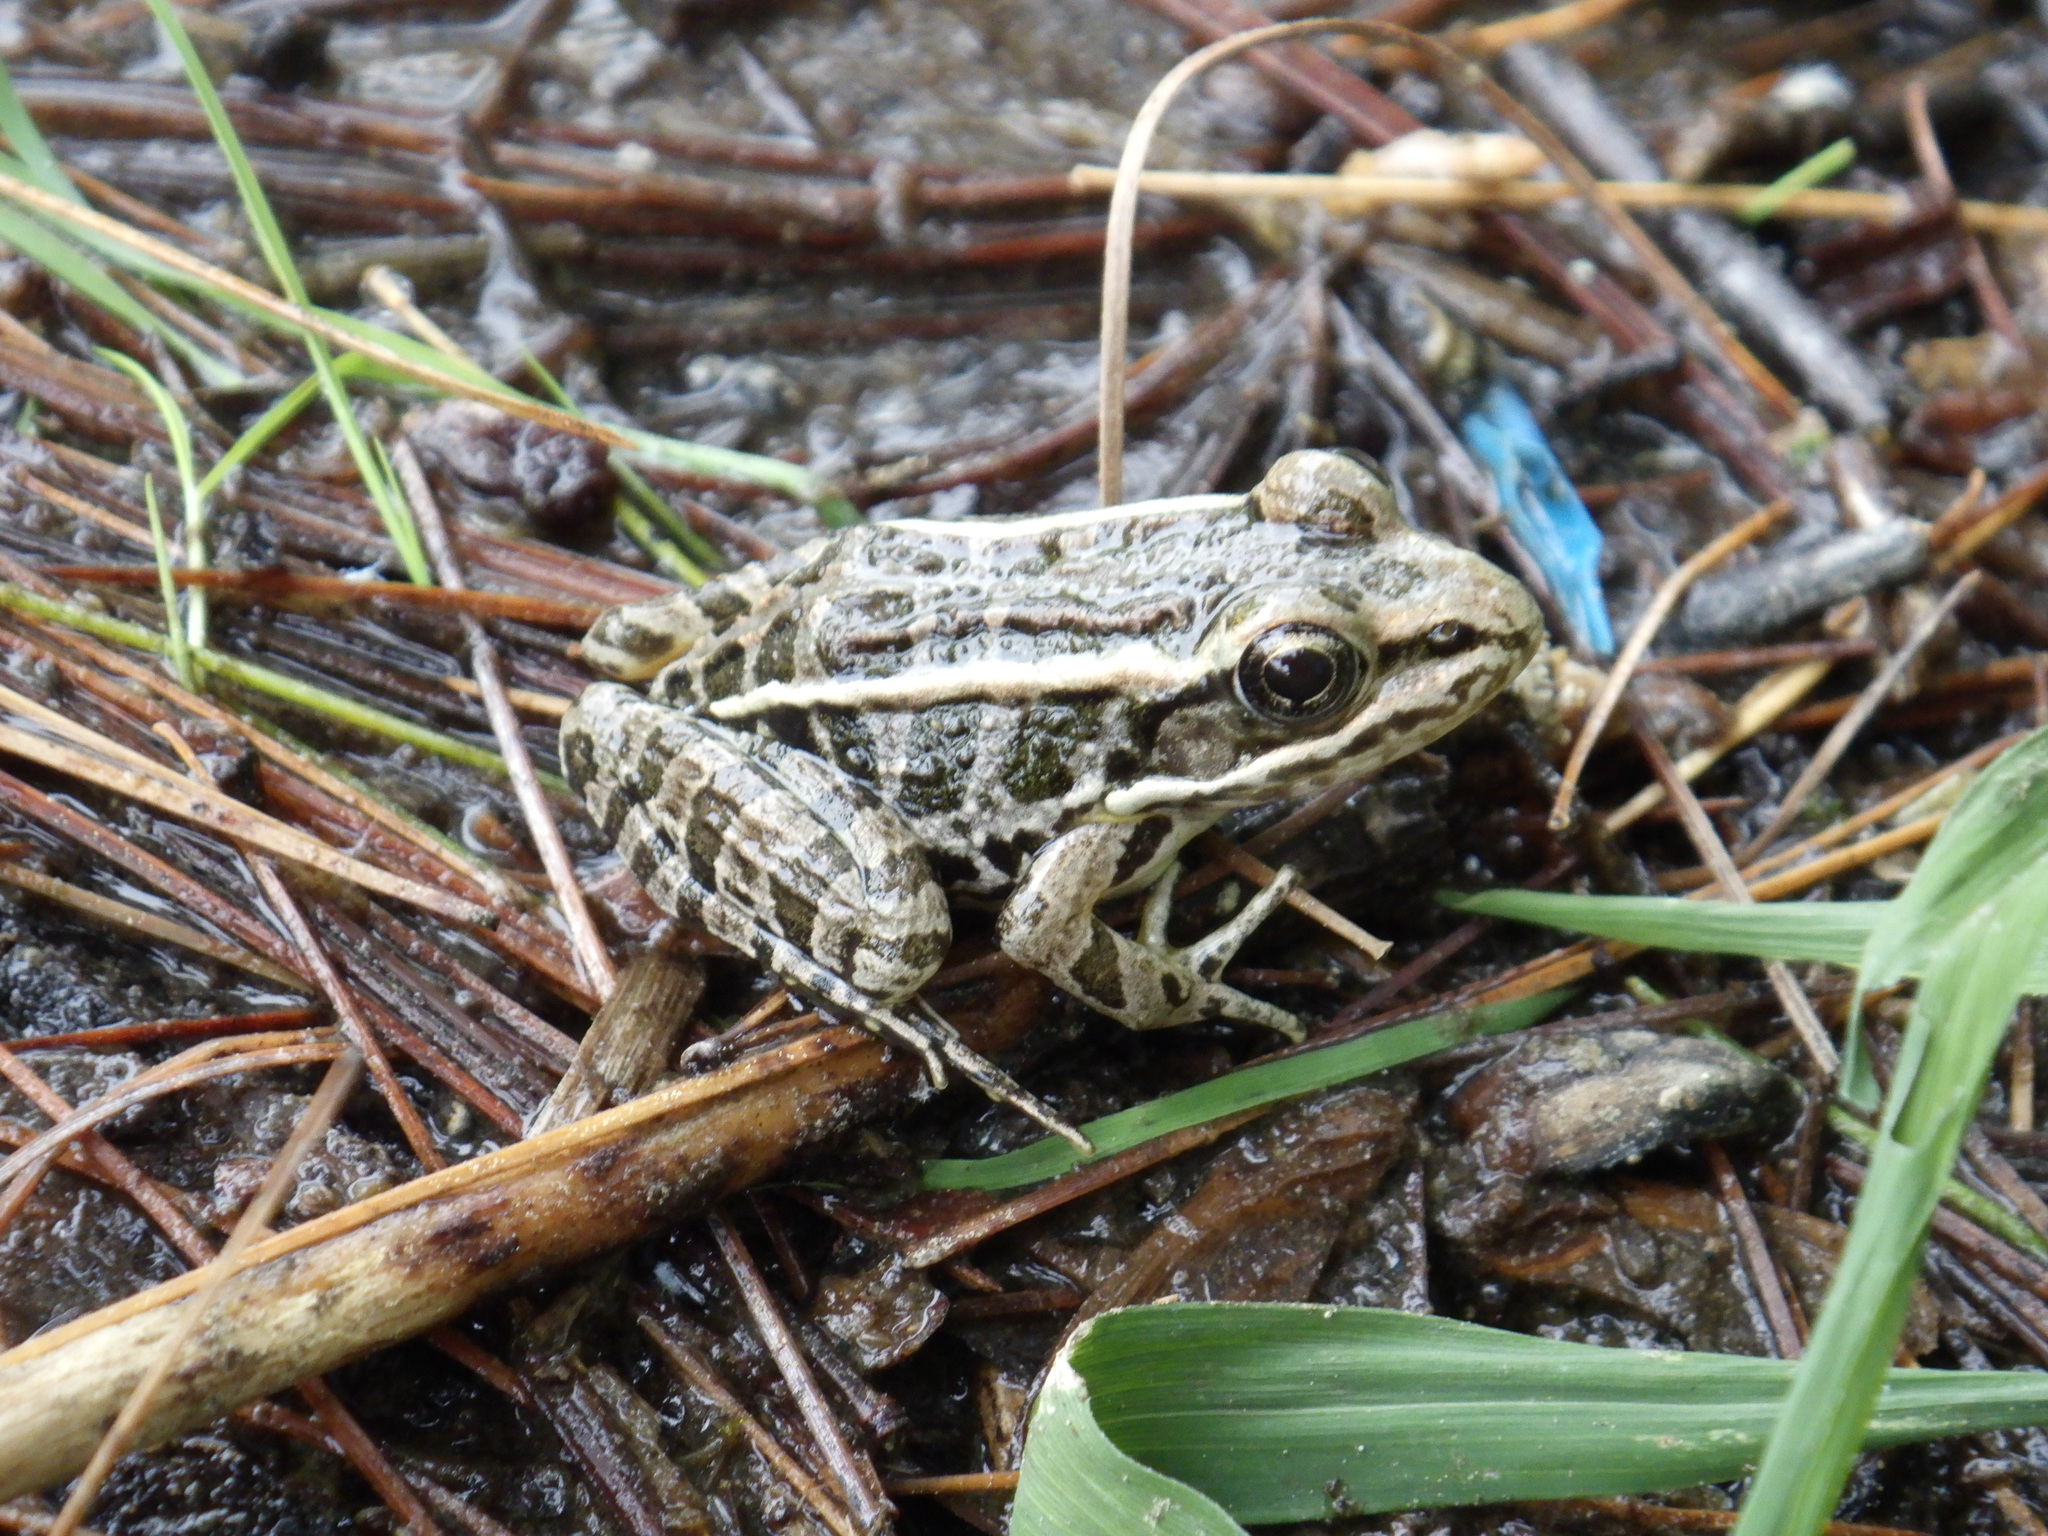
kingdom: Animalia
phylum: Chordata
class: Amphibia
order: Anura
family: Ranidae
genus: Lithobates
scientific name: Lithobates palustris
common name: Pickerel frog
